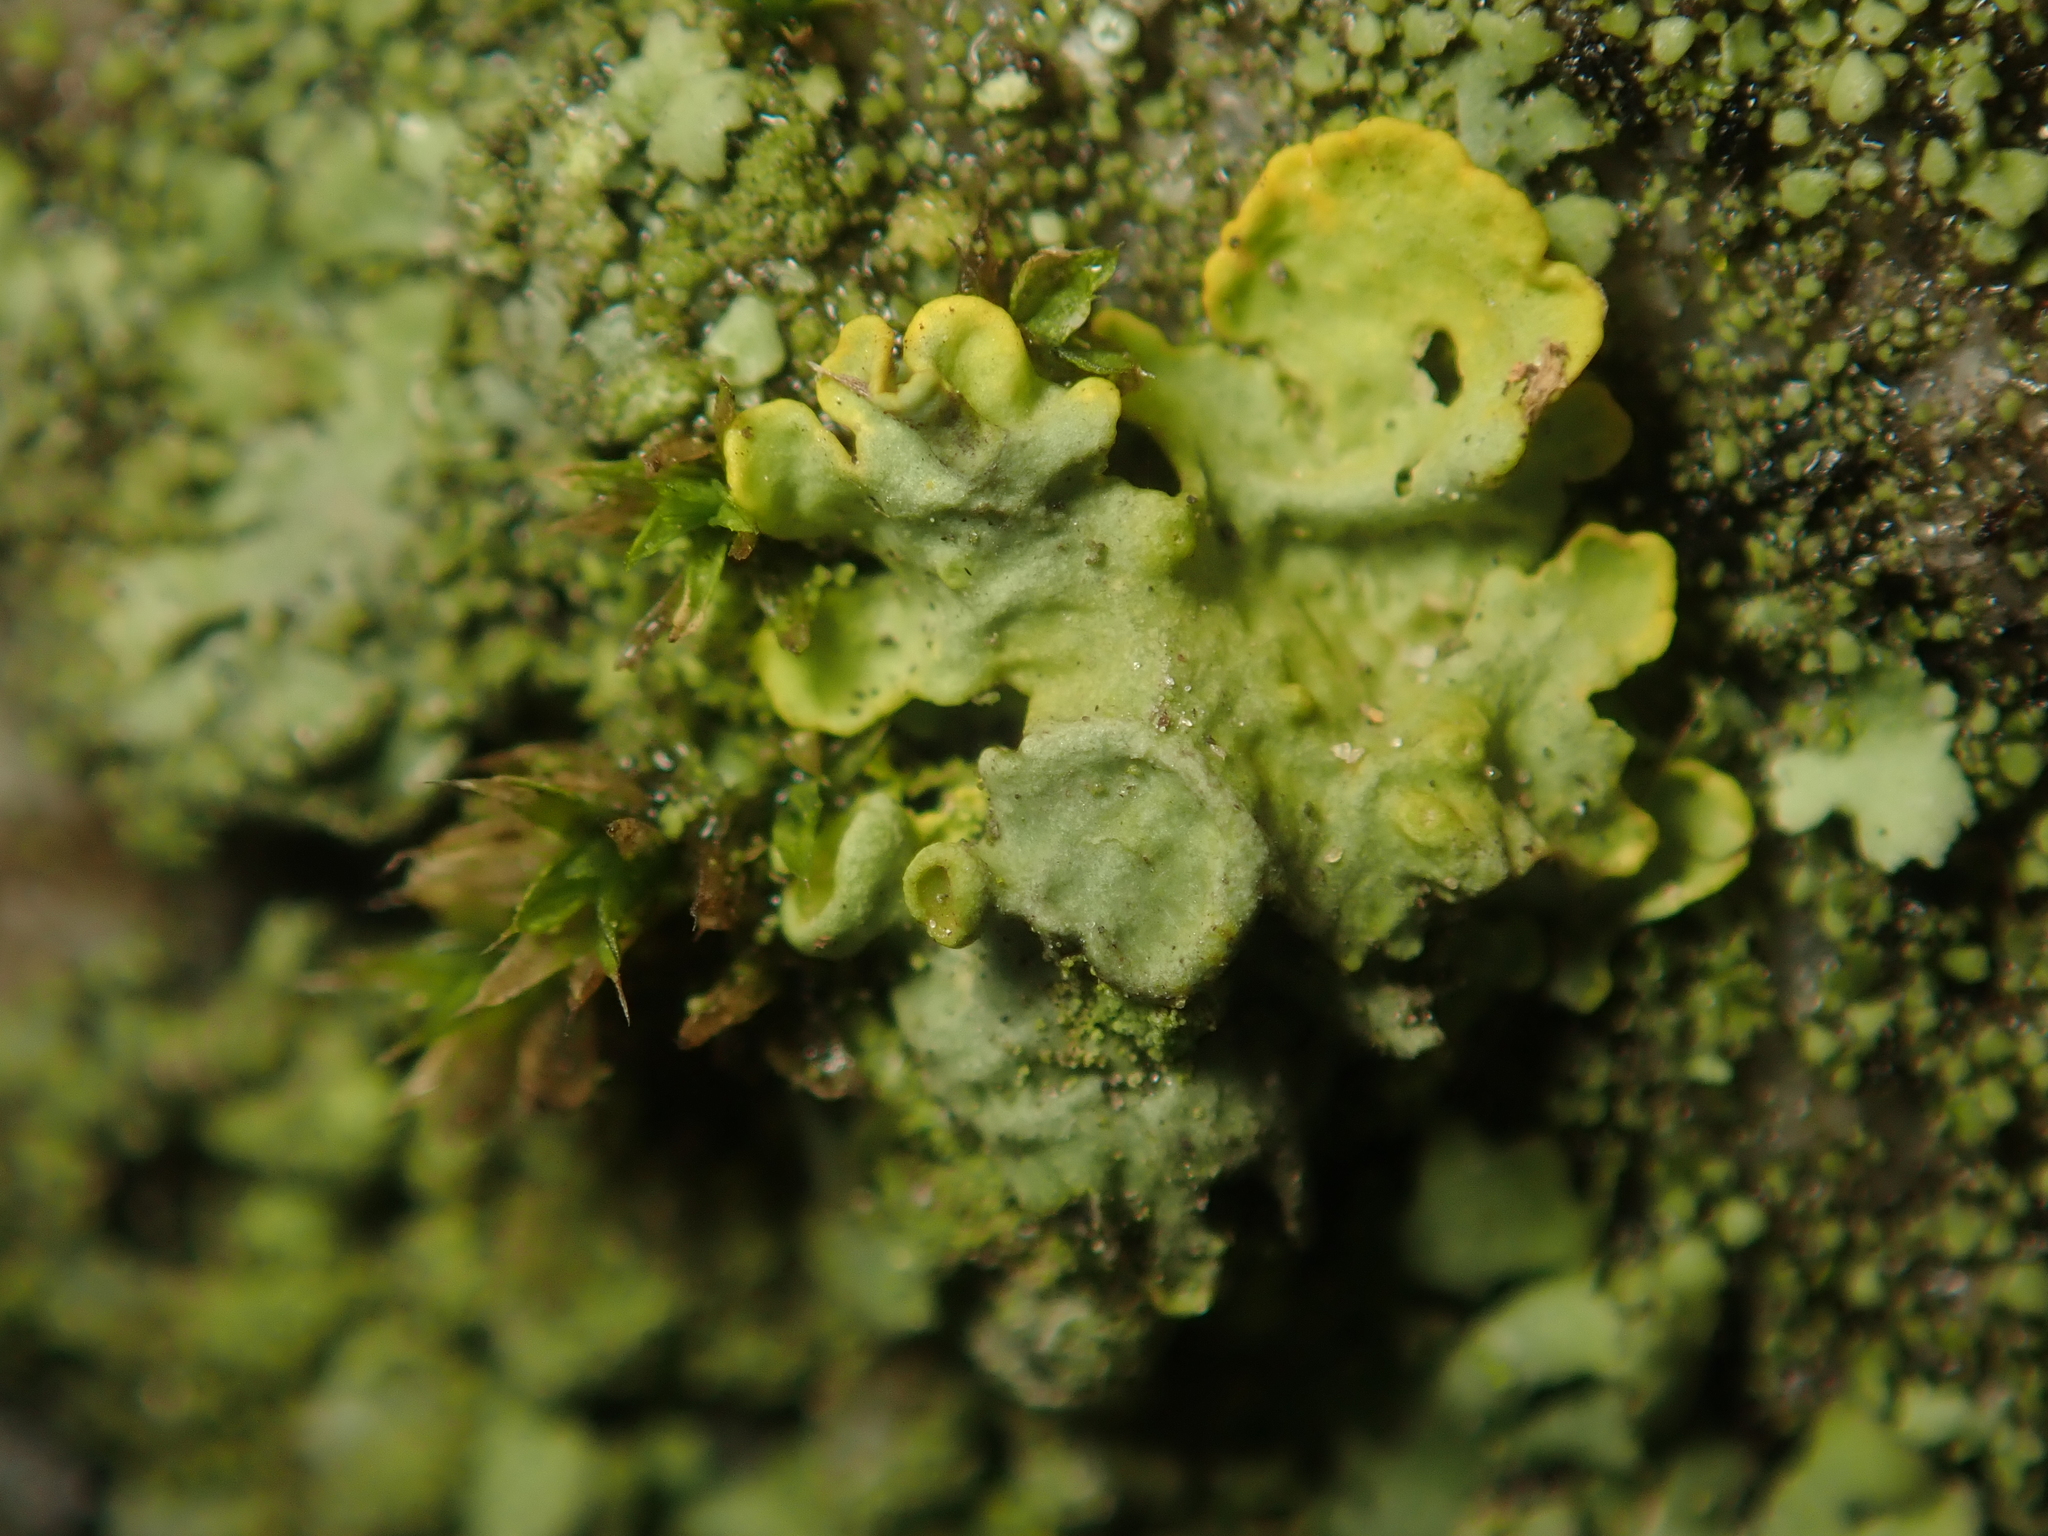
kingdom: Fungi
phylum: Ascomycota
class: Lecanoromycetes
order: Teloschistales
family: Teloschistaceae
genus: Xanthoria
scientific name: Xanthoria parietina
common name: Common orange lichen
